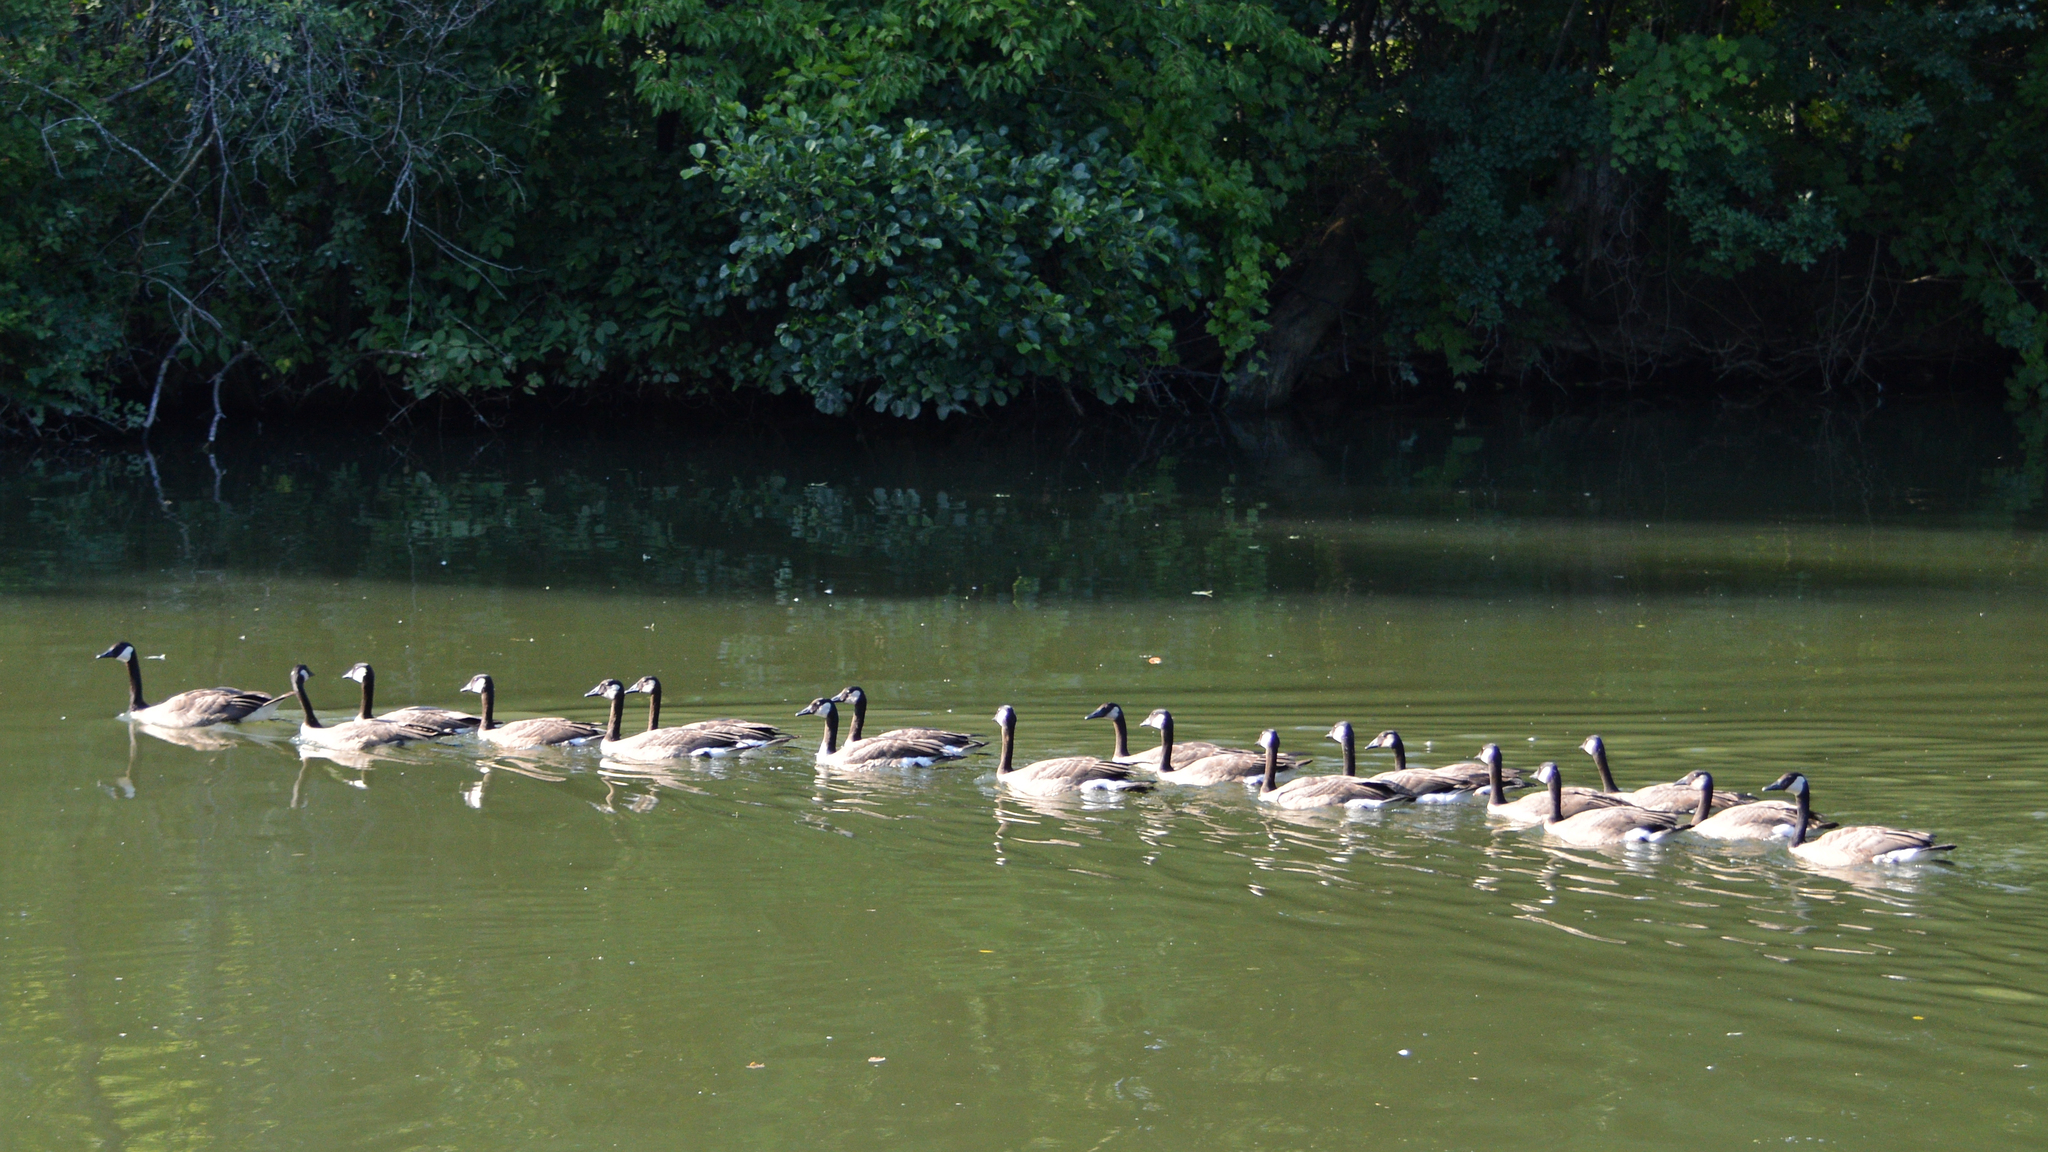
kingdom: Animalia
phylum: Chordata
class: Aves
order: Anseriformes
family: Anatidae
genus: Branta
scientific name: Branta canadensis
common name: Canada goose
